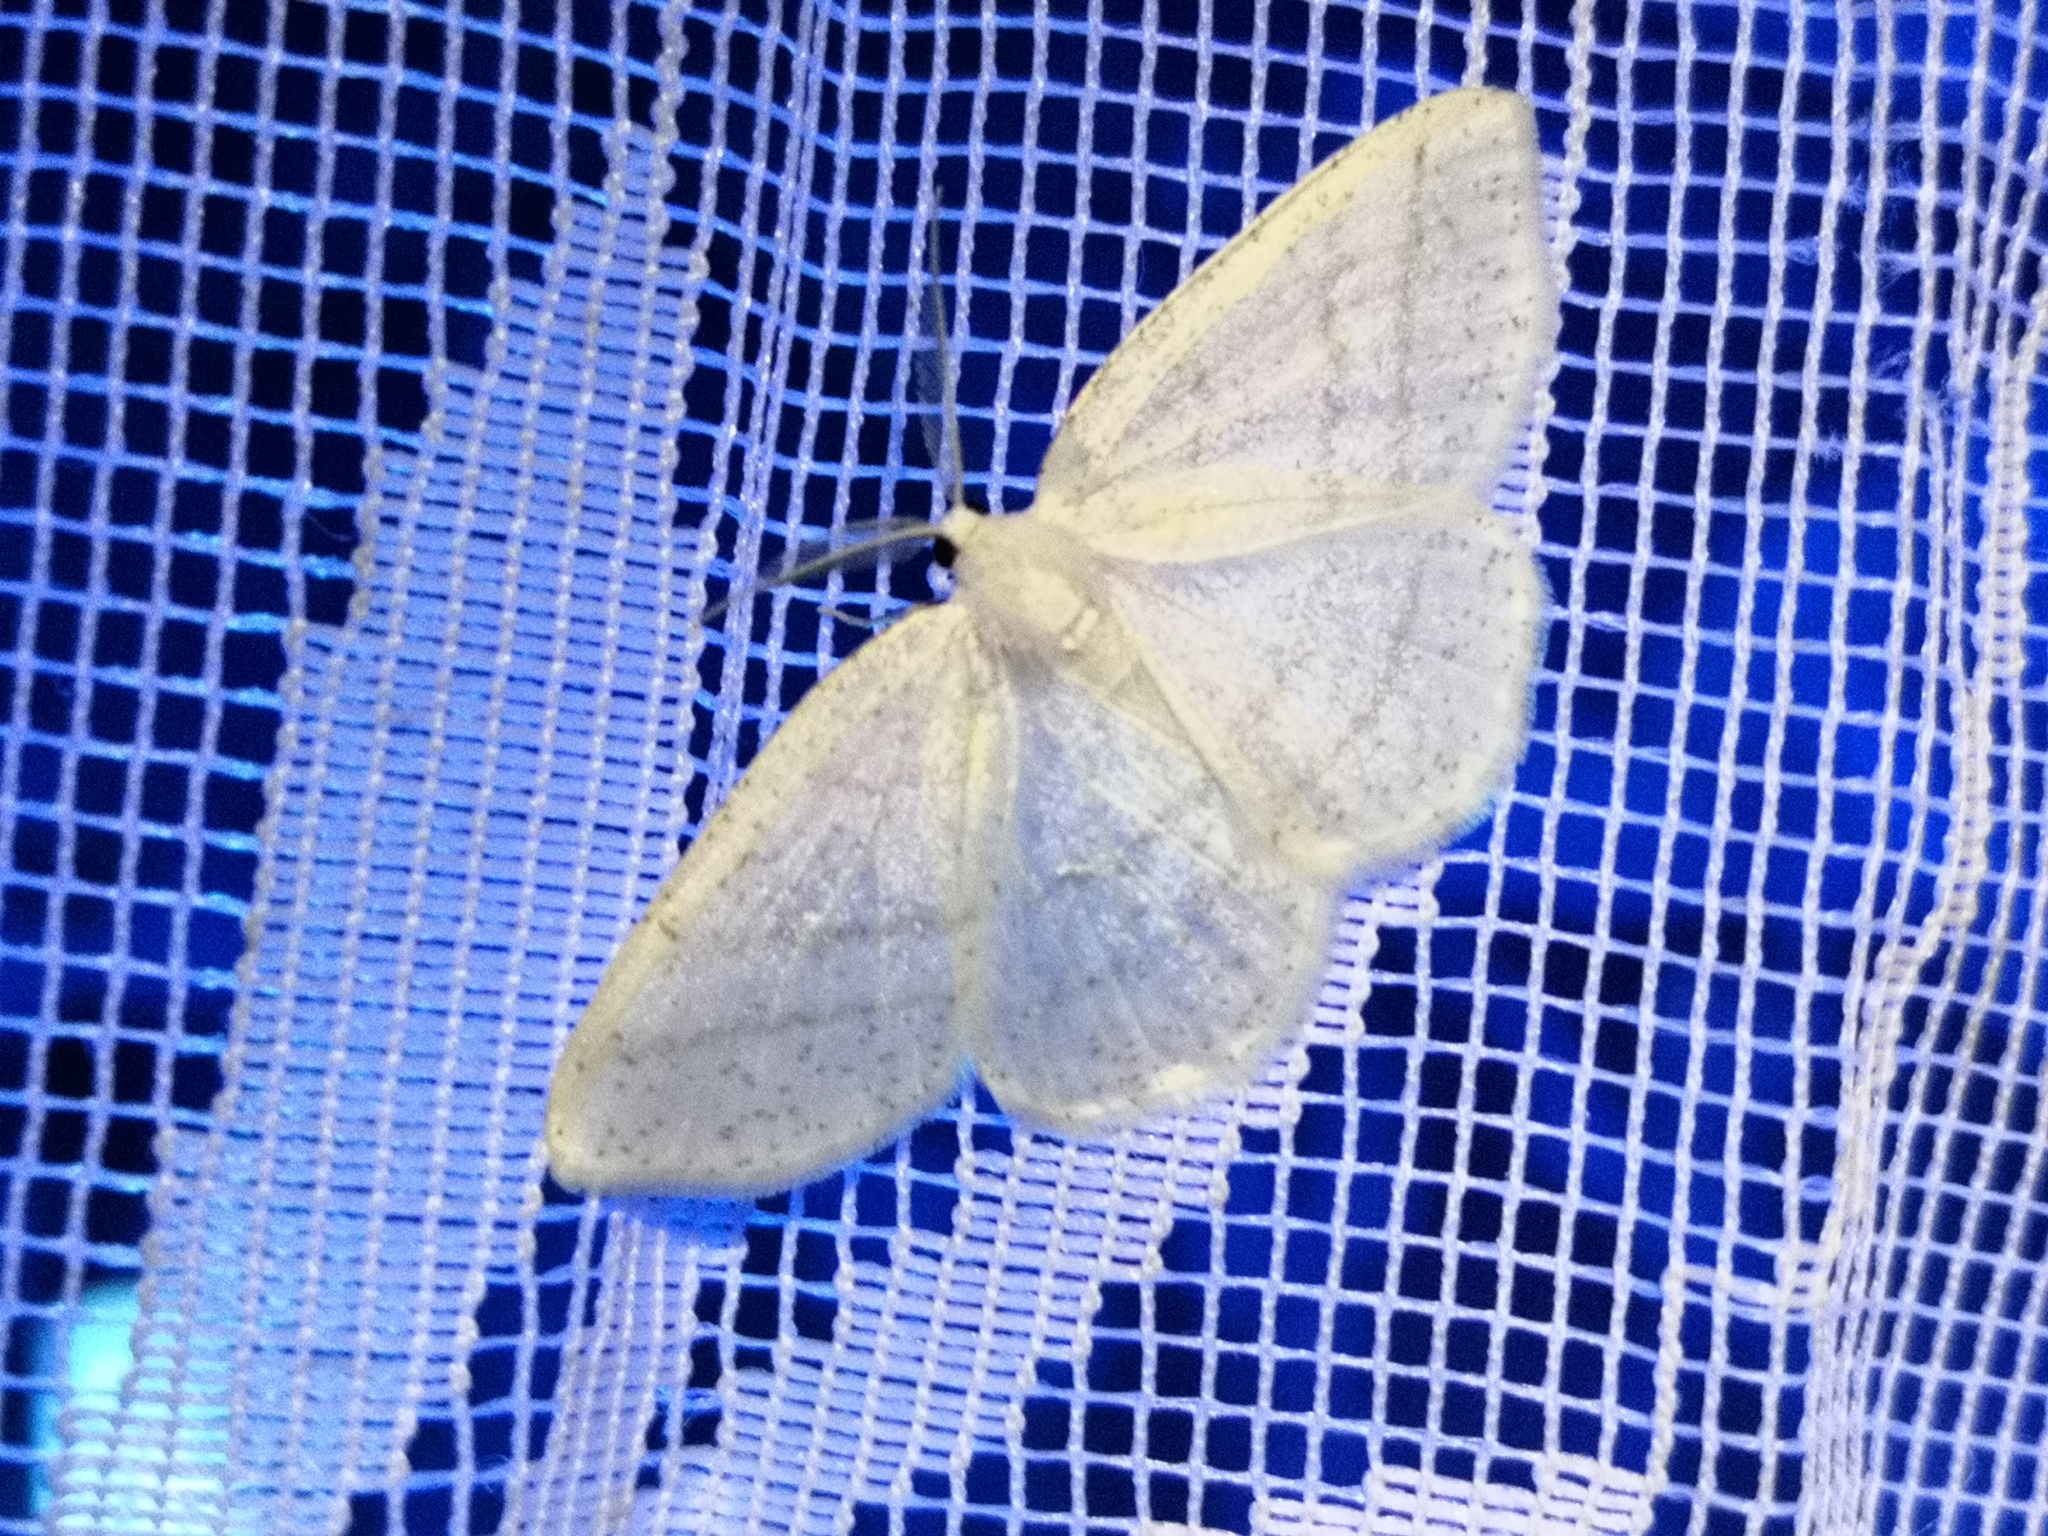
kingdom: Animalia
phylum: Arthropoda
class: Insecta
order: Lepidoptera
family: Geometridae
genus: Cabera
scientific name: Cabera pusaria
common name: Common white wave
